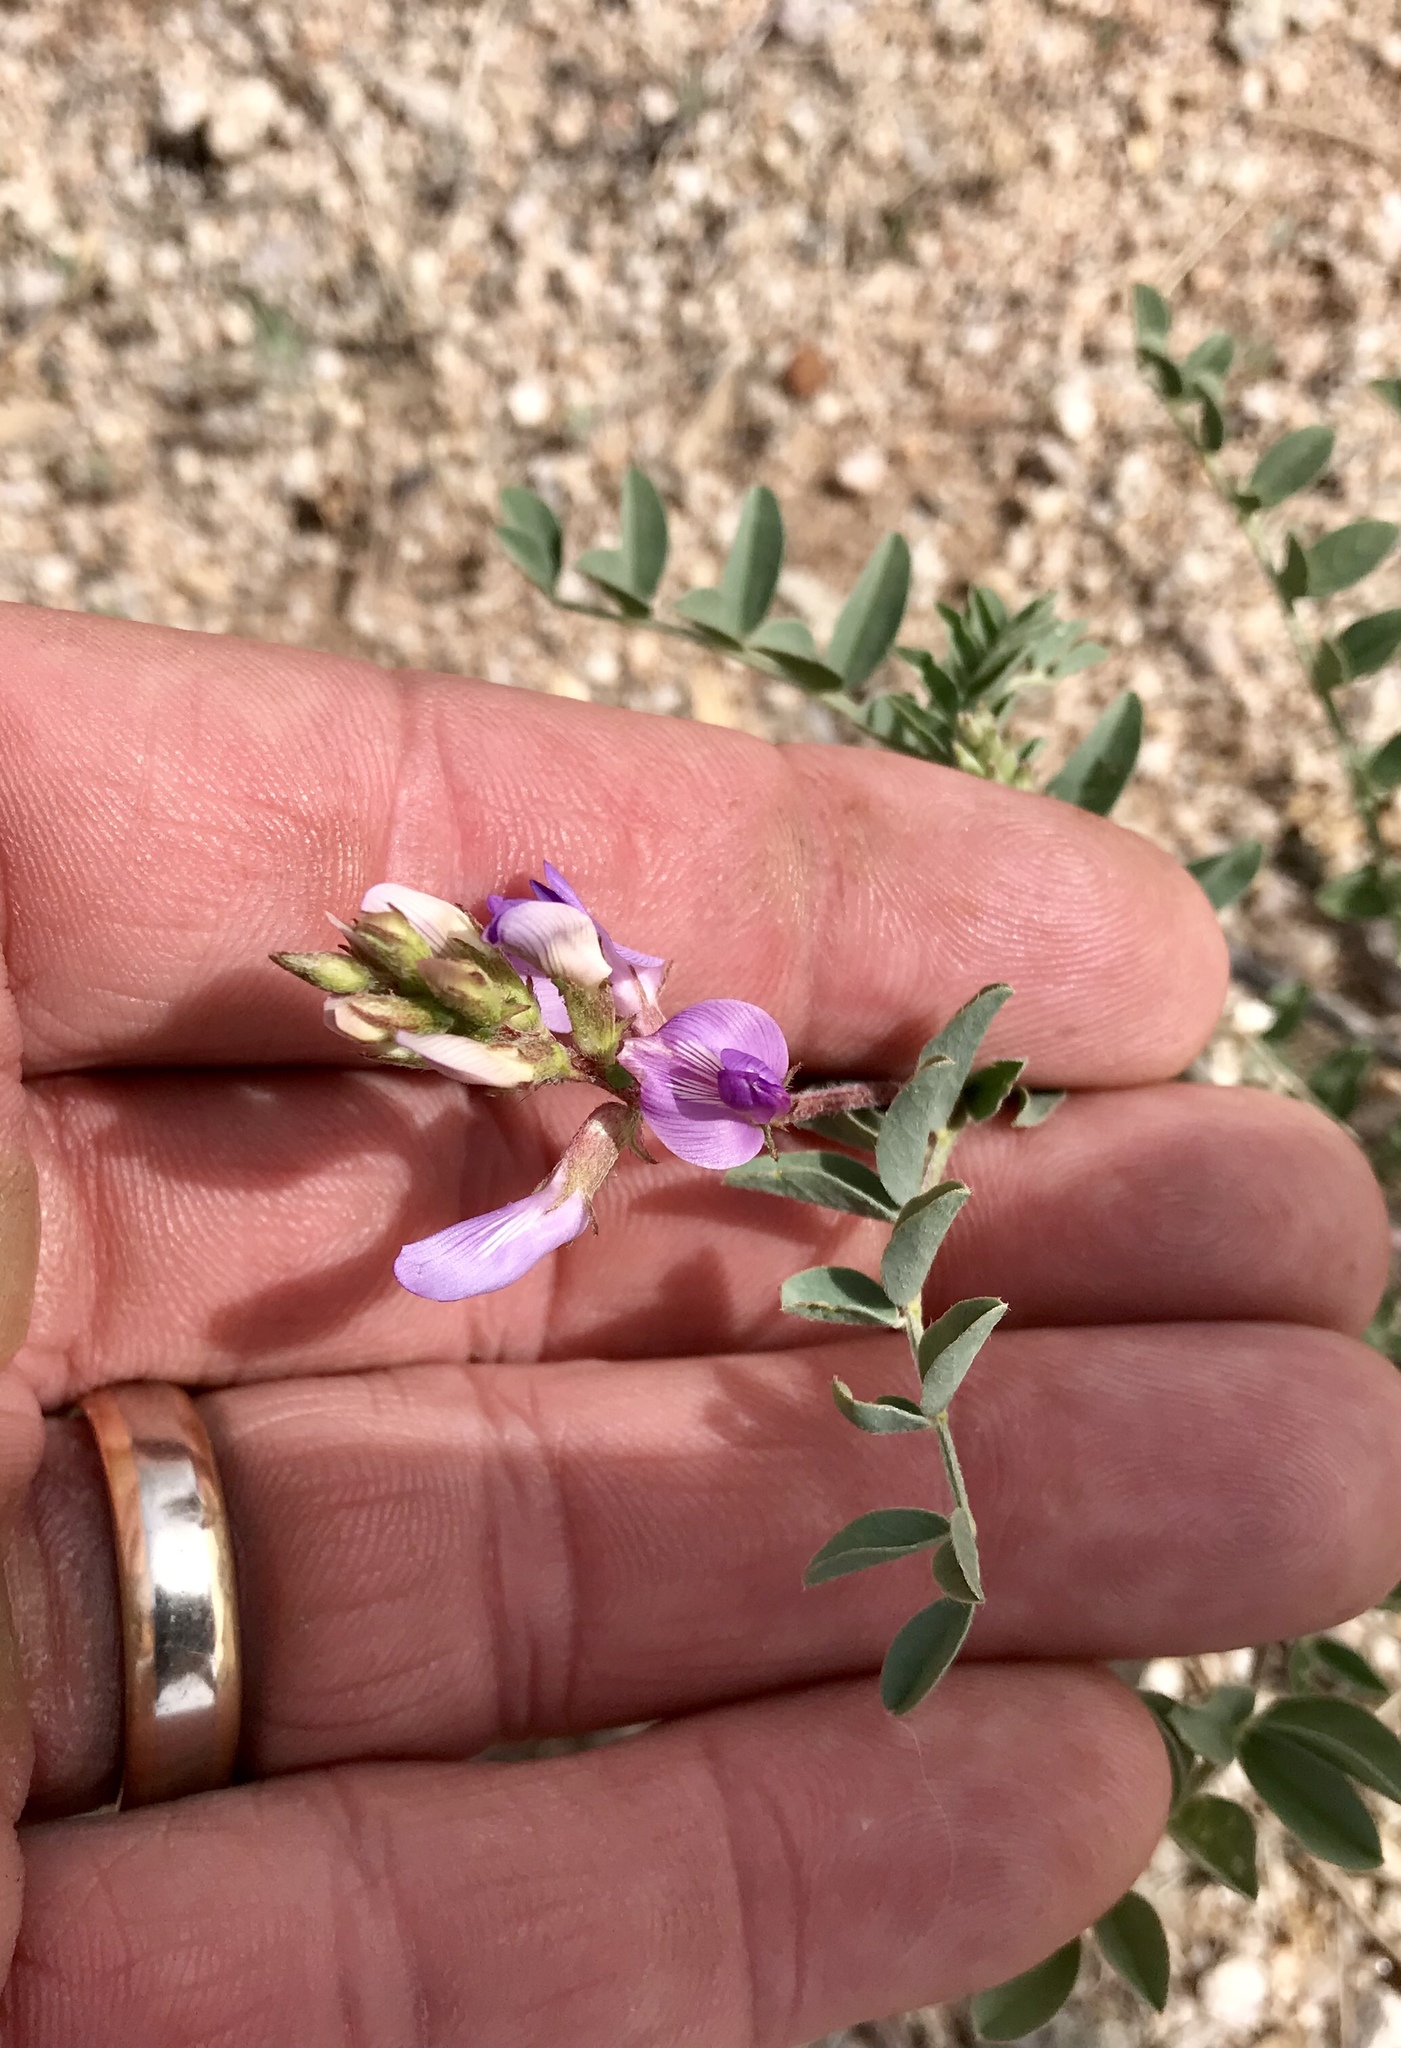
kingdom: Plantae
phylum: Tracheophyta
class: Magnoliopsida
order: Fabales
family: Fabaceae
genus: Astragalus
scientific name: Astragalus lentiginosus
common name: Freckled milkvetch
